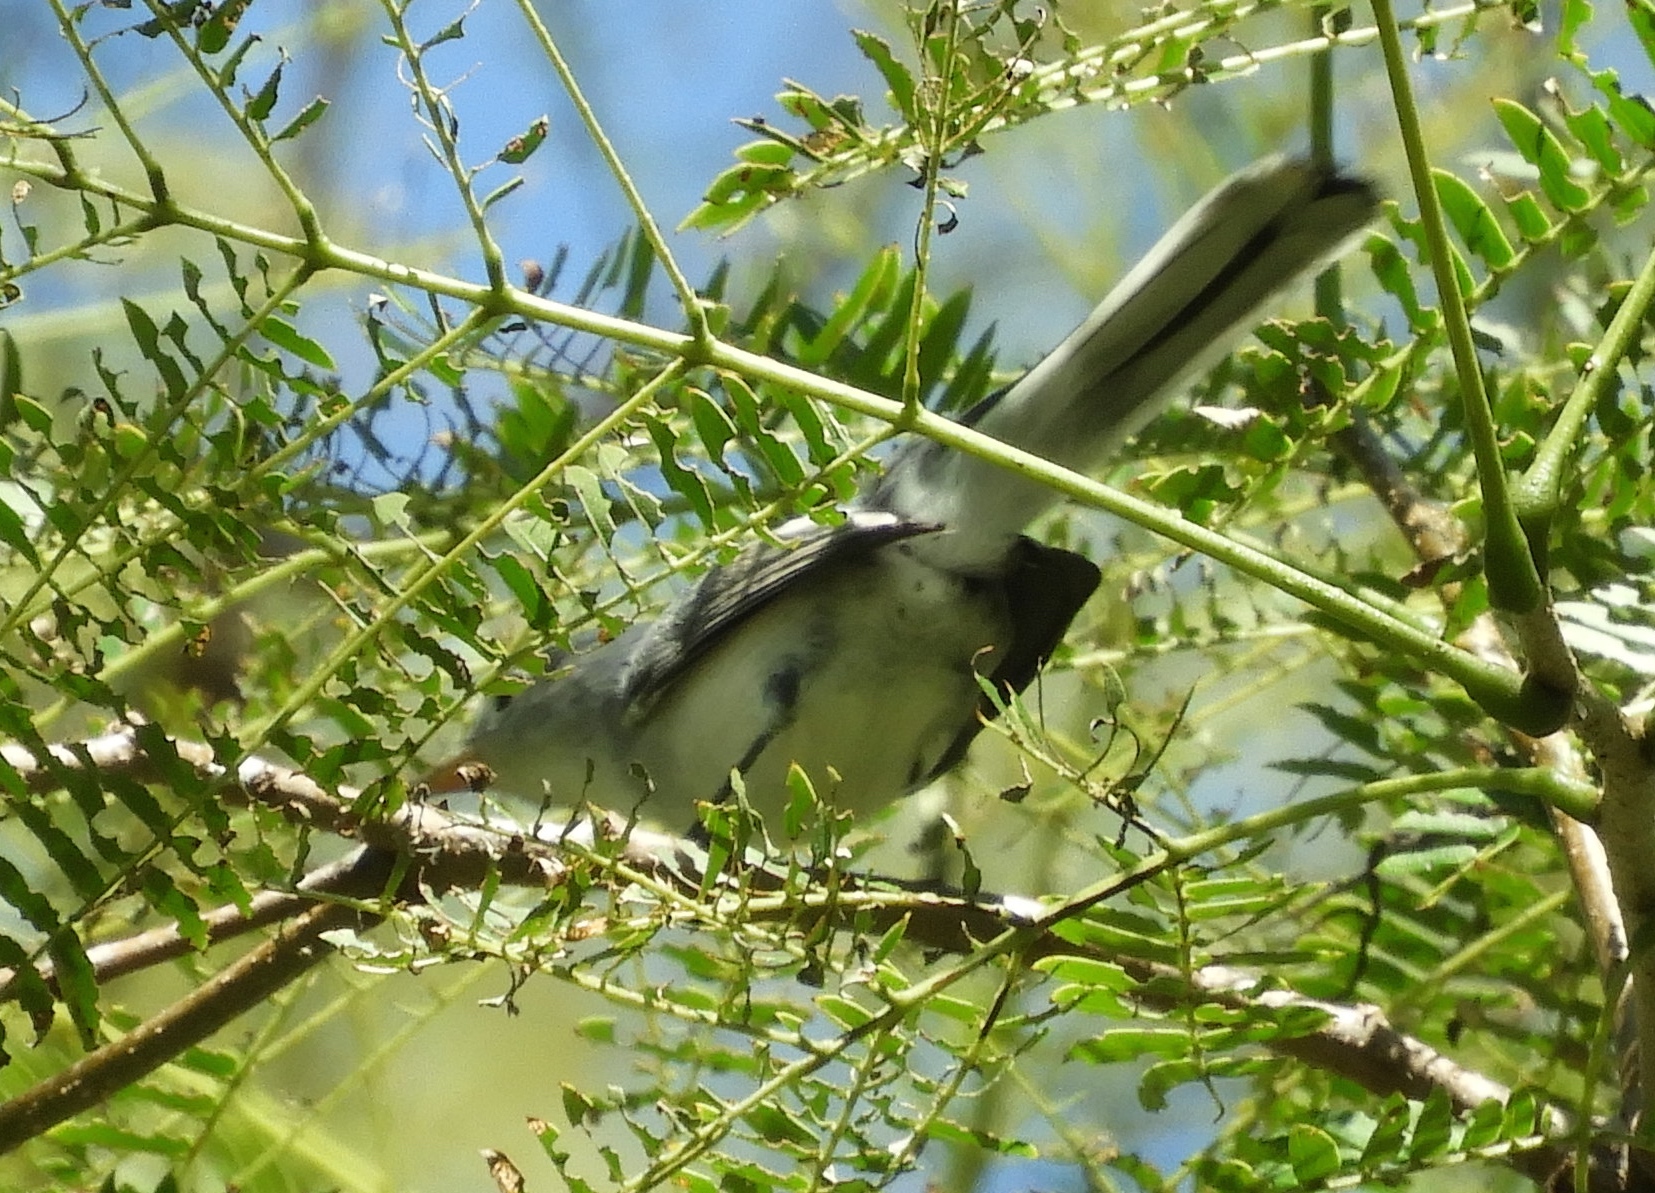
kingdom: Animalia
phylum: Chordata
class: Aves
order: Passeriformes
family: Polioptilidae
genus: Polioptila
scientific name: Polioptila
